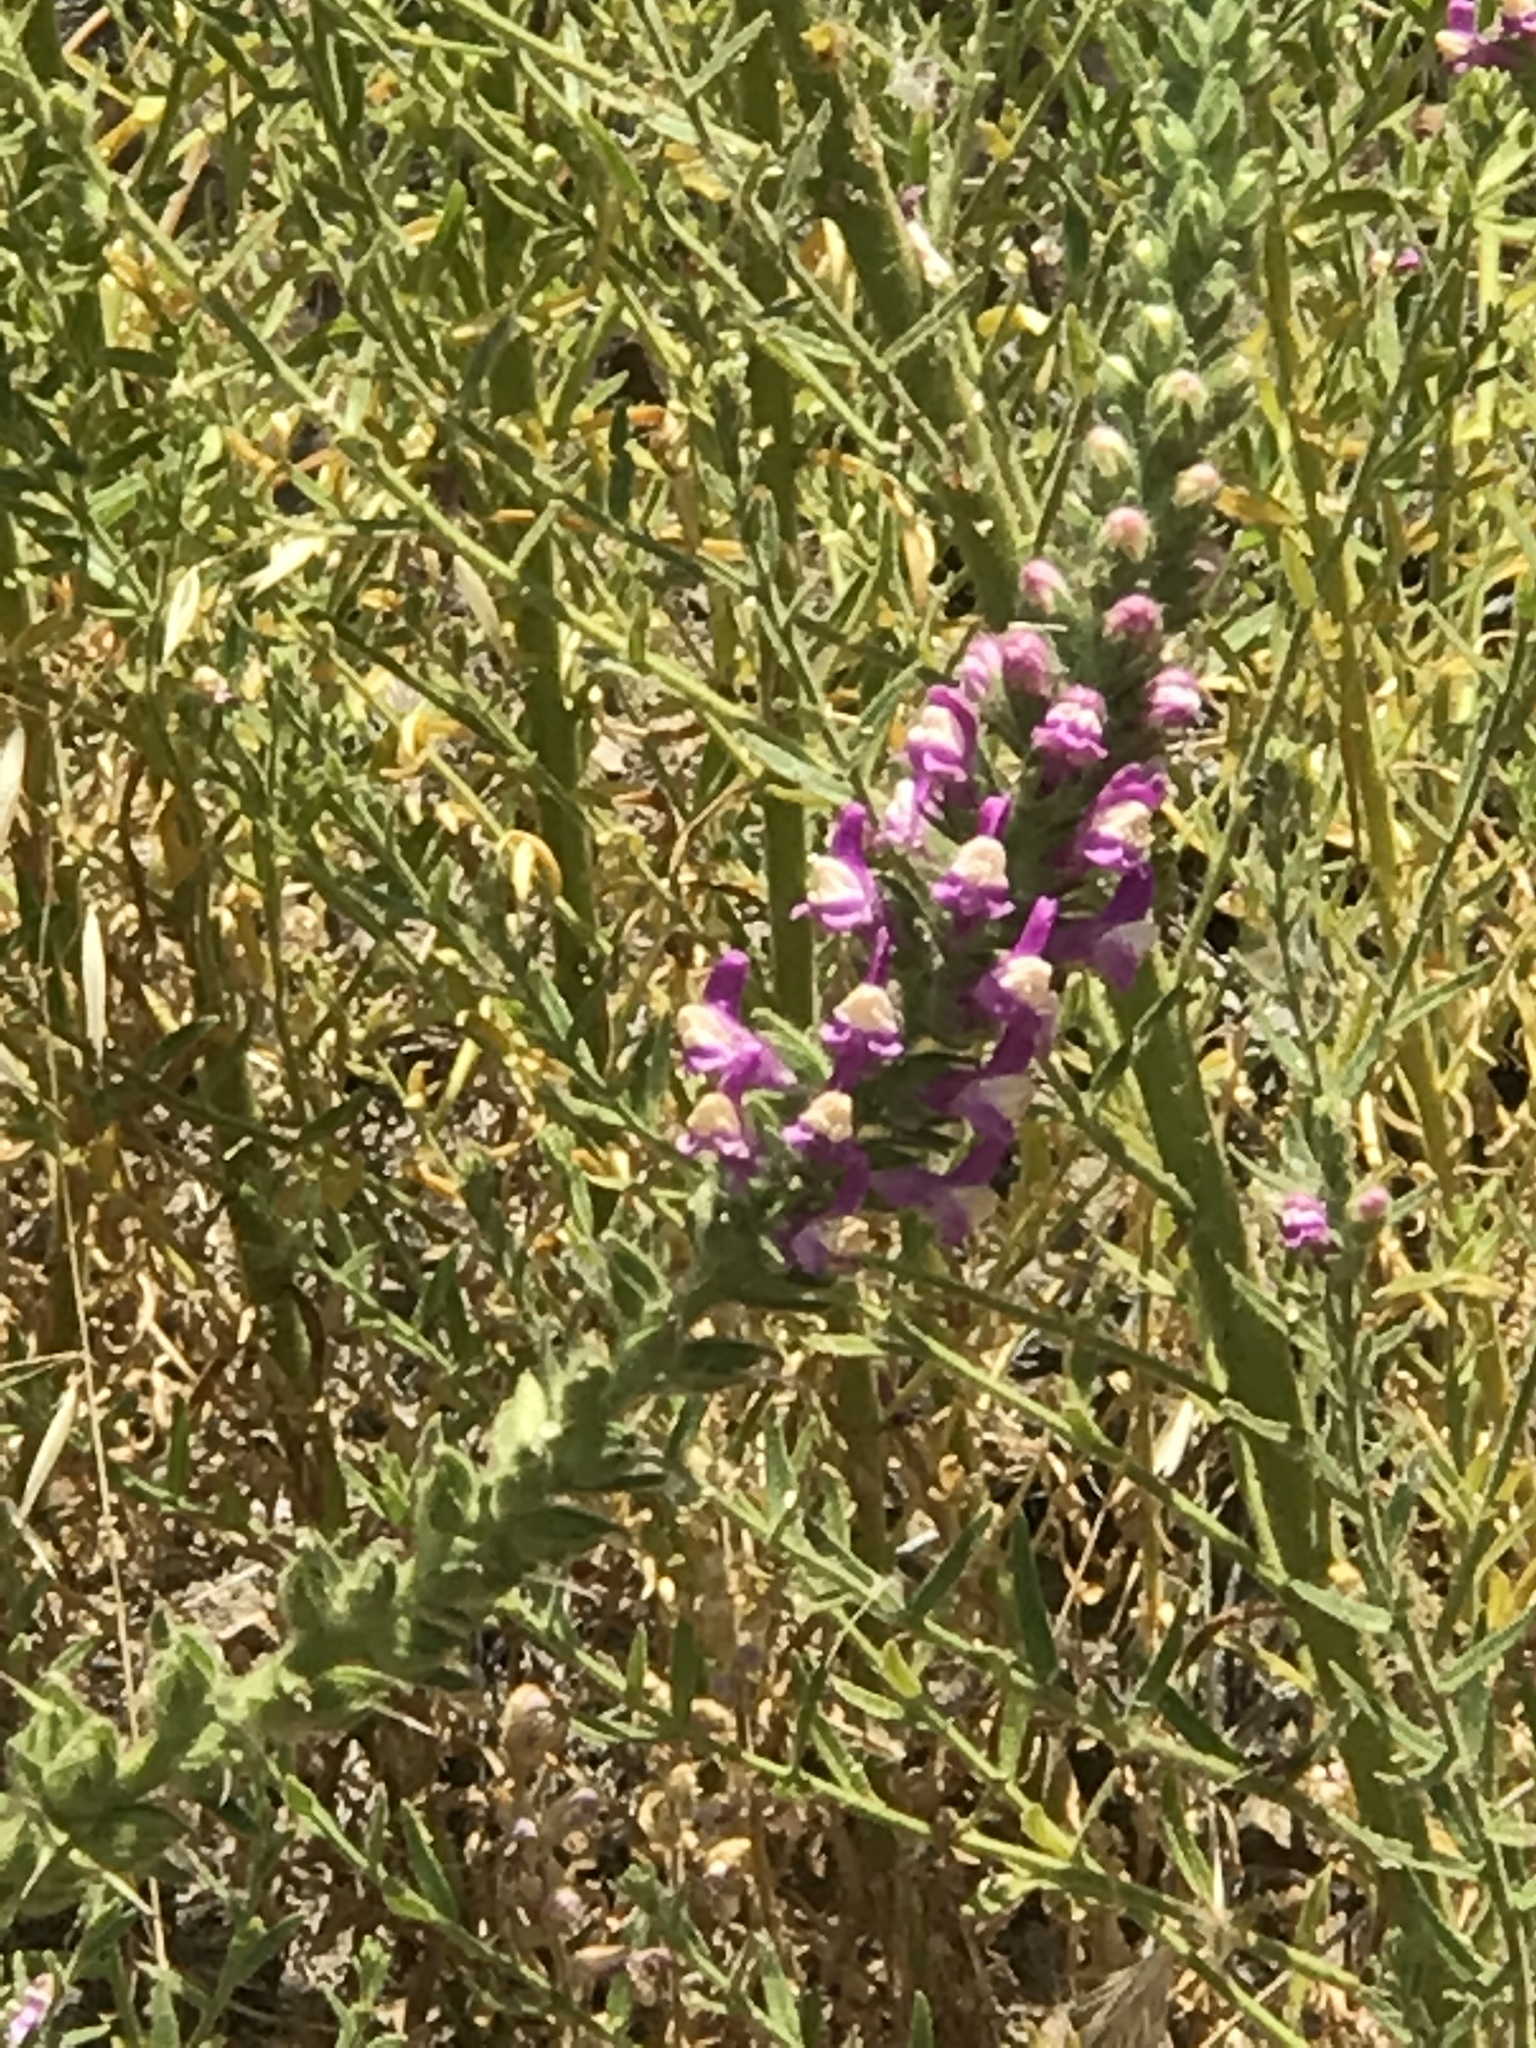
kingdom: Plantae
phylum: Tracheophyta
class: Magnoliopsida
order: Lamiales
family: Plantaginaceae
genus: Sairocarpus
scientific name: Sairocarpus multiflorus
